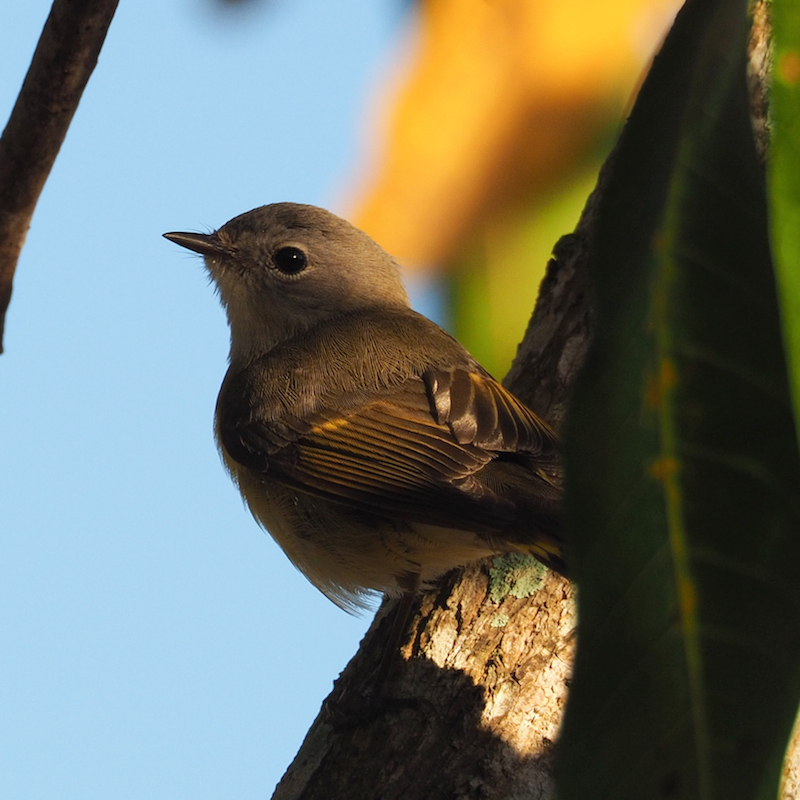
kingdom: Animalia
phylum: Chordata
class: Aves
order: Passeriformes
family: Parulidae
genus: Setophaga
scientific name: Setophaga ruticilla
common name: American redstart
